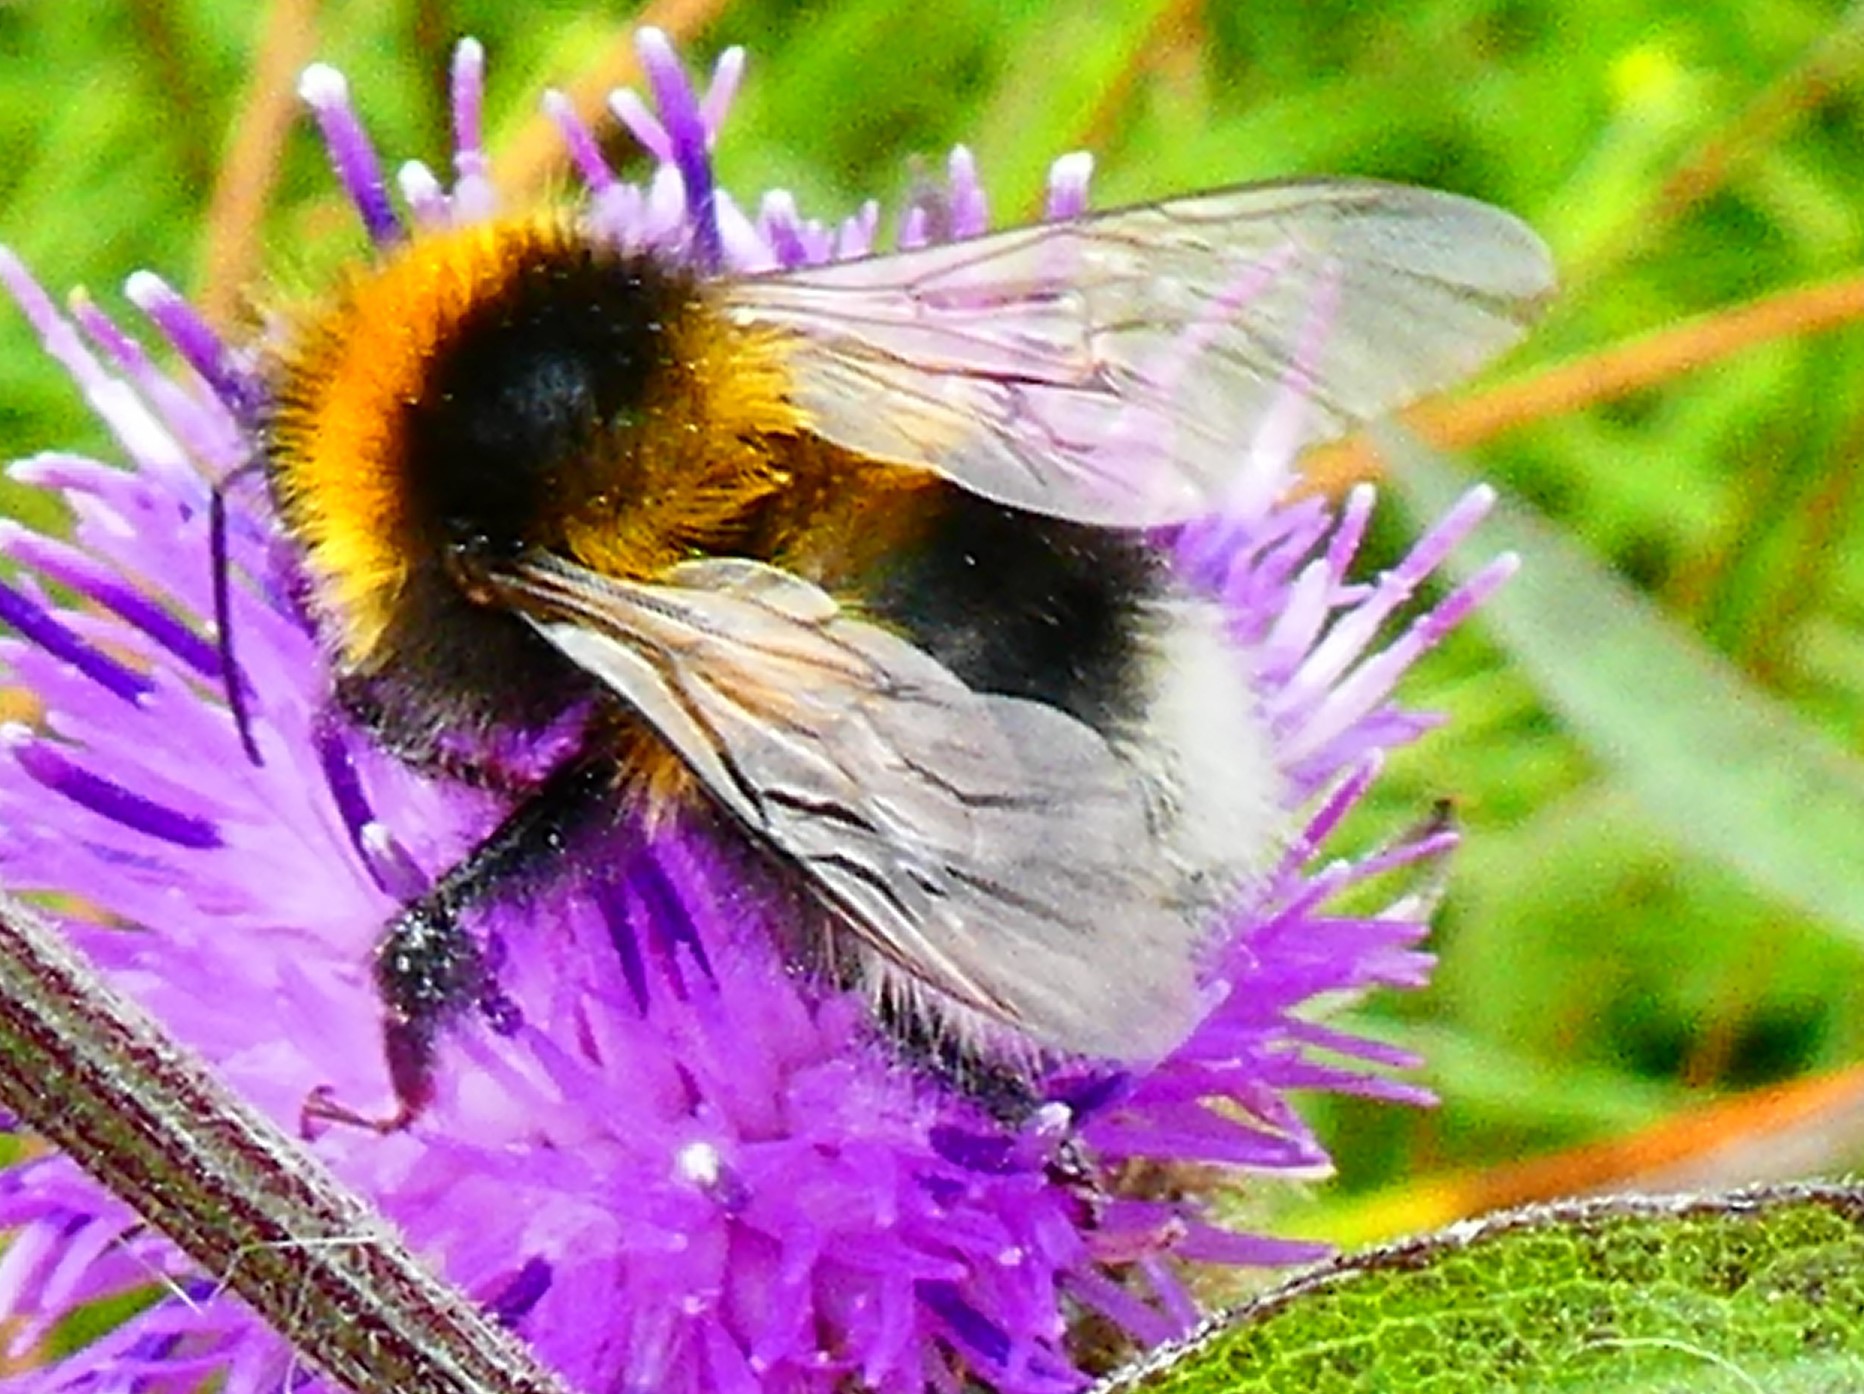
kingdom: Animalia
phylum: Arthropoda
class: Insecta
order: Hymenoptera
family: Apidae
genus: Bombus
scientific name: Bombus hortorum
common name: Garden bumblebee
